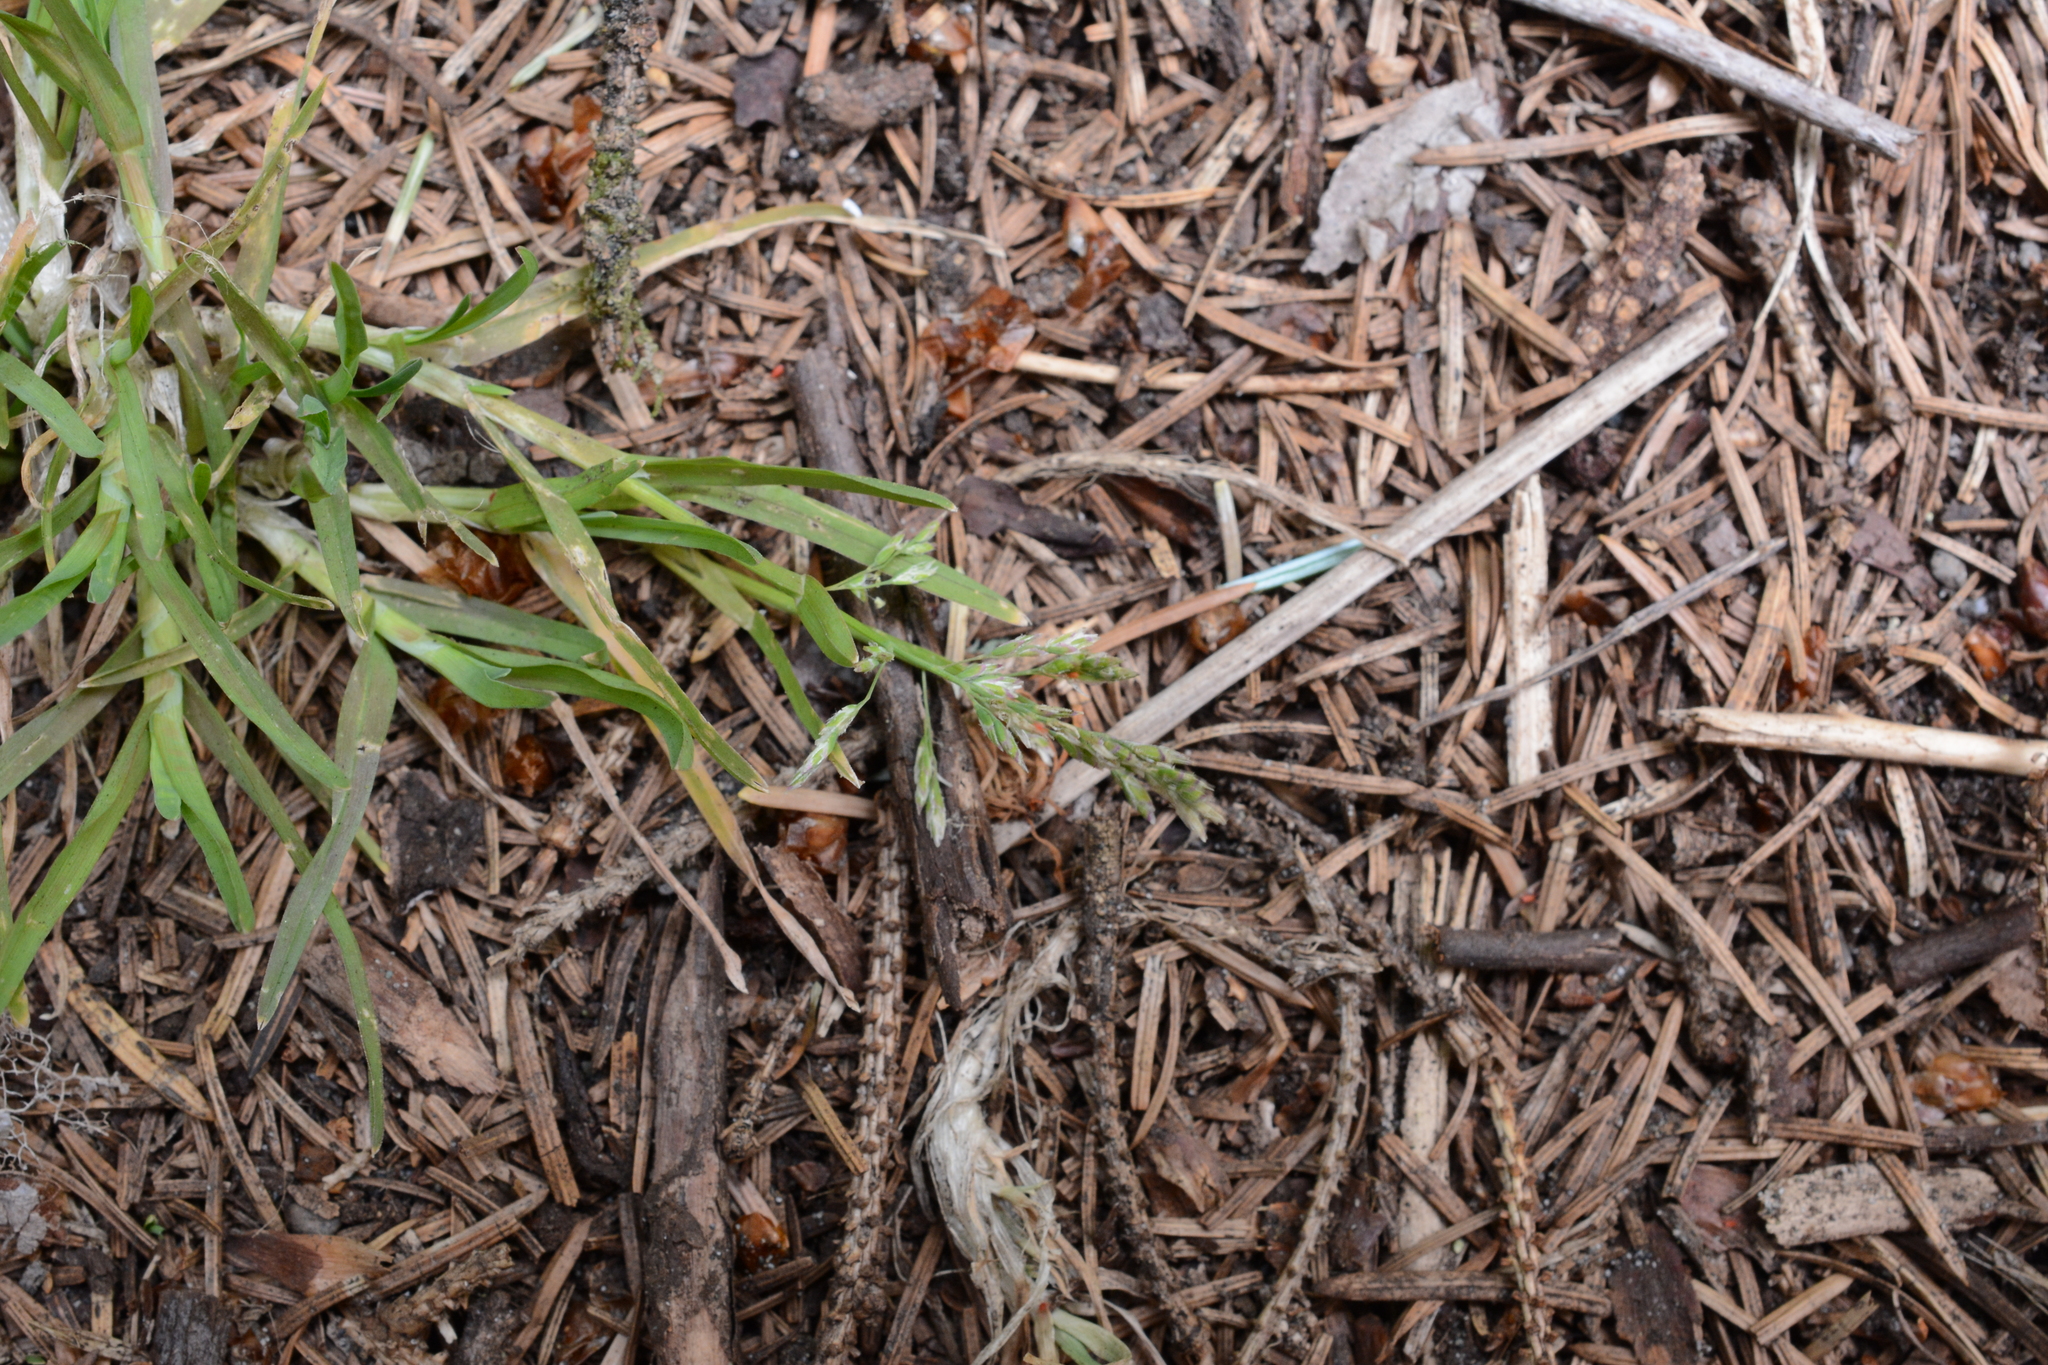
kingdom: Plantae
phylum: Tracheophyta
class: Liliopsida
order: Poales
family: Poaceae
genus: Poa
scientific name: Poa annua
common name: Annual bluegrass
